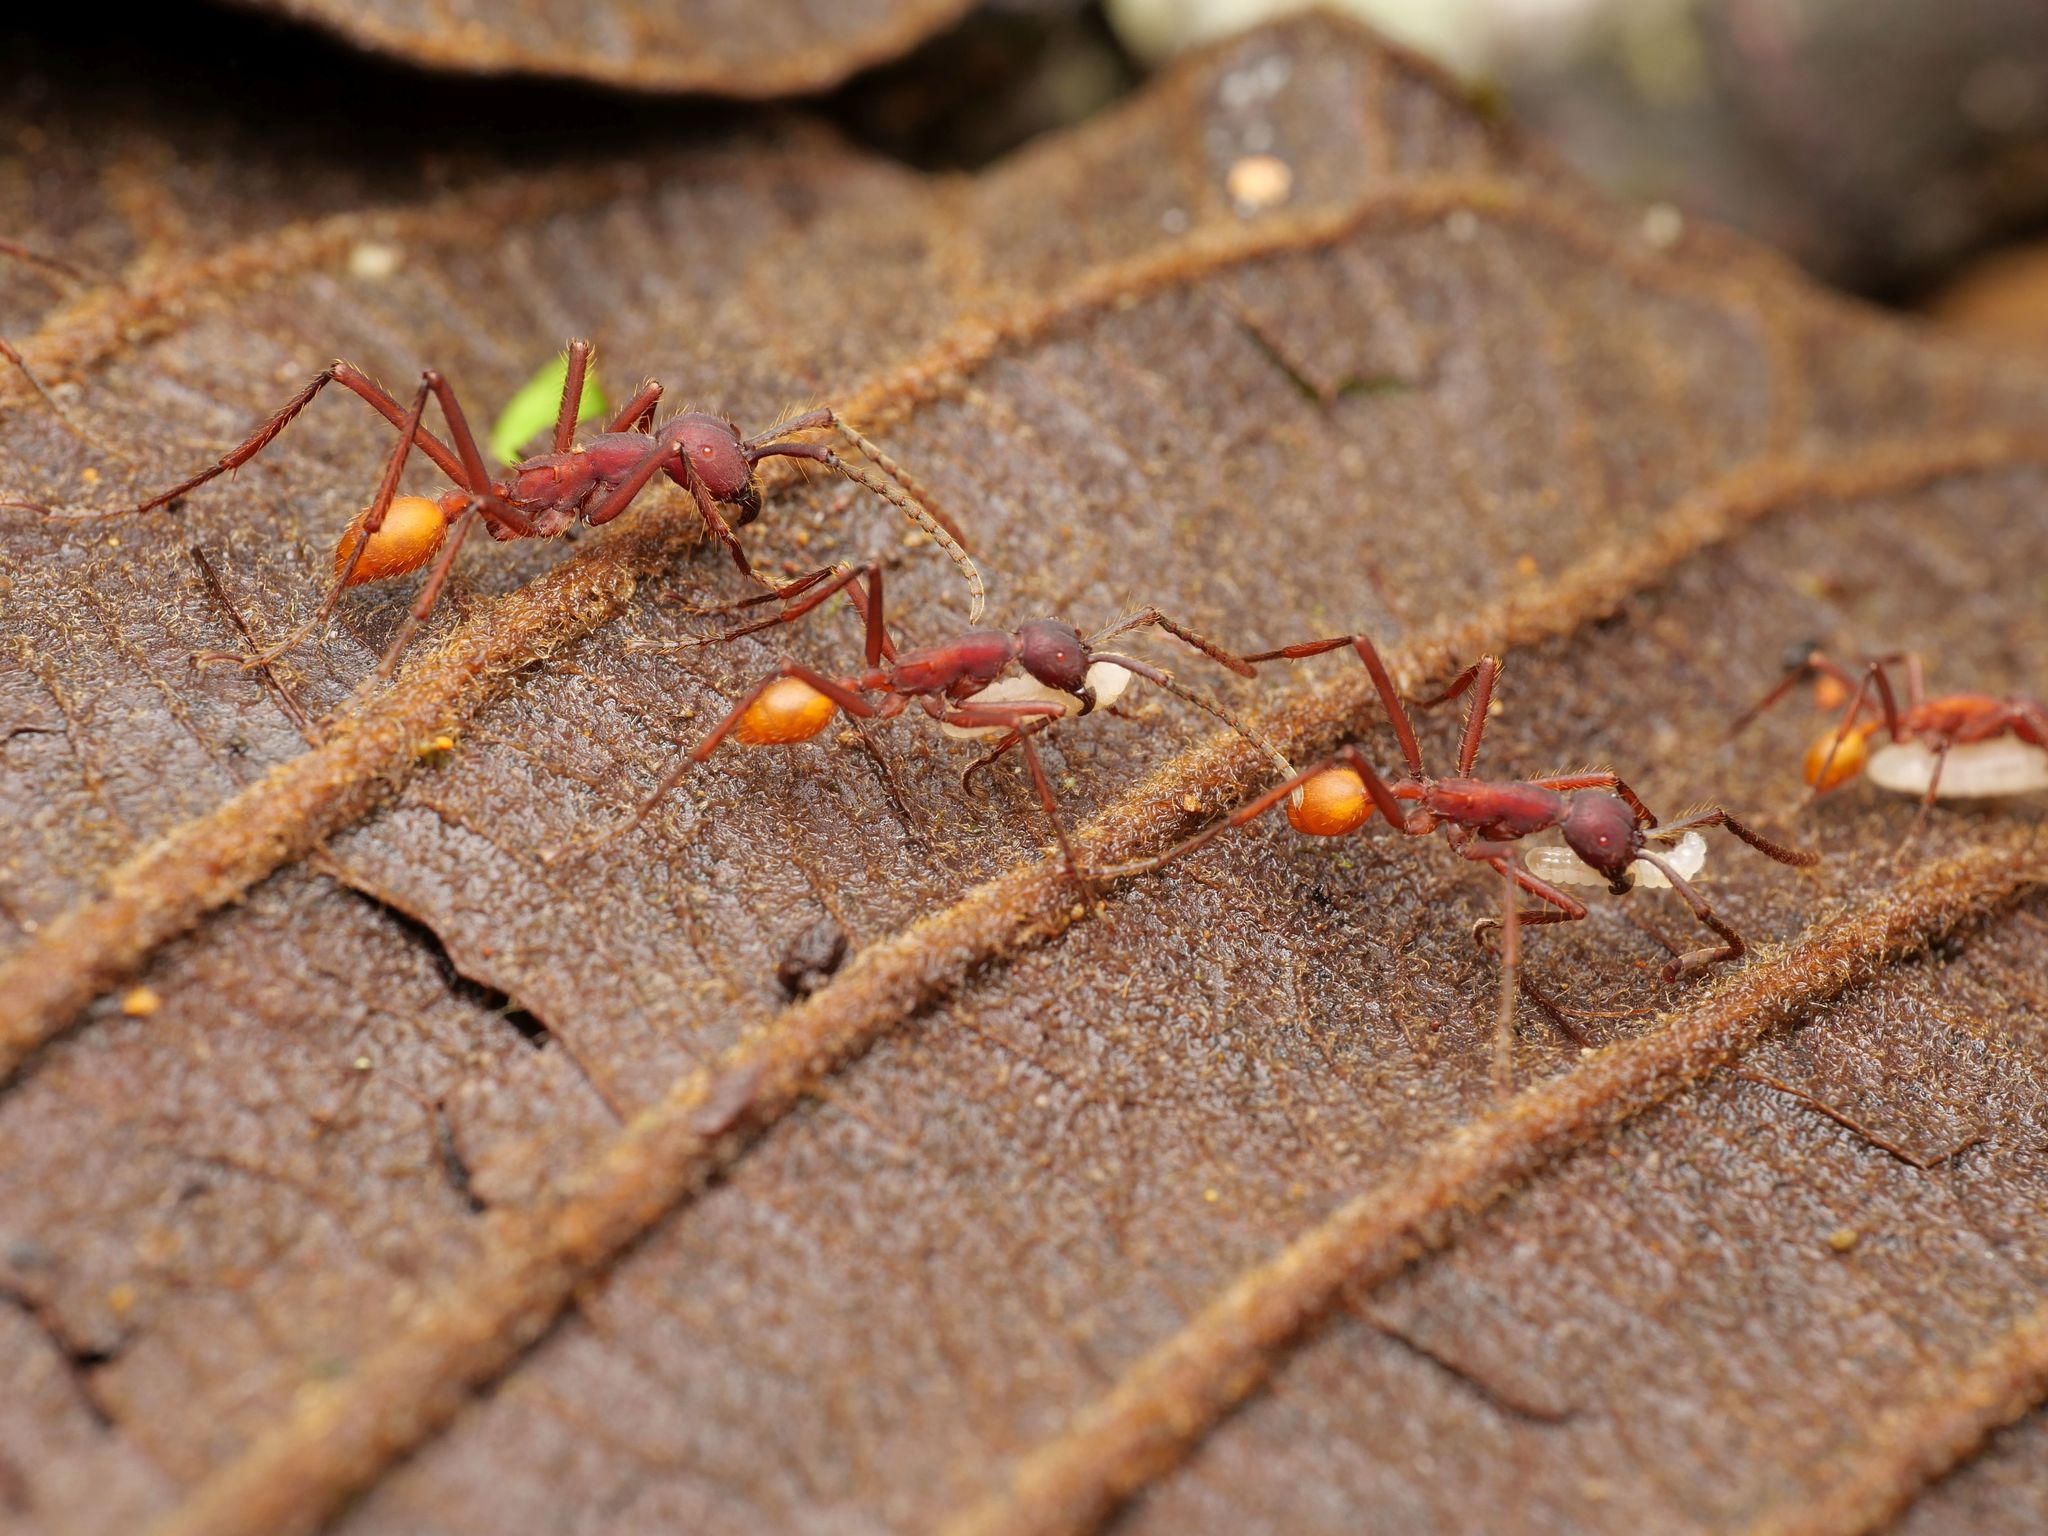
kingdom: Animalia
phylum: Arthropoda
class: Insecta
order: Hymenoptera
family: Formicidae
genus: Eciton
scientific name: Eciton vagans
